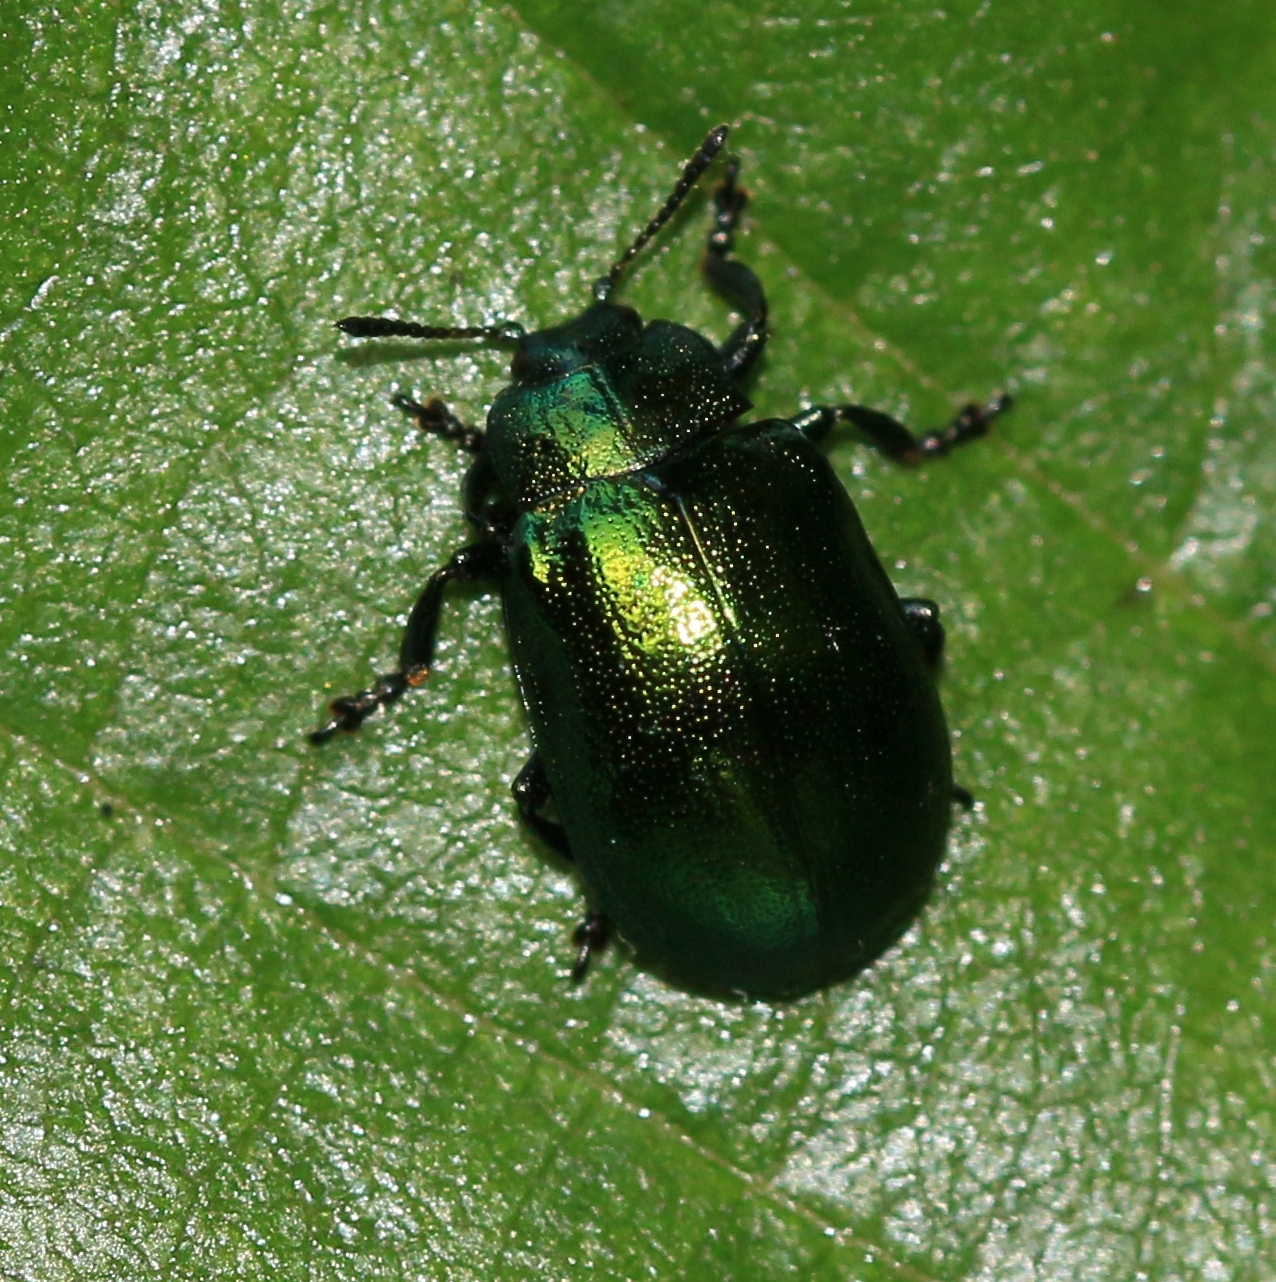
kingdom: Animalia
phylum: Arthropoda
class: Insecta
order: Coleoptera
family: Chrysomelidae
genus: Plagiosterna
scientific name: Plagiosterna aenea
